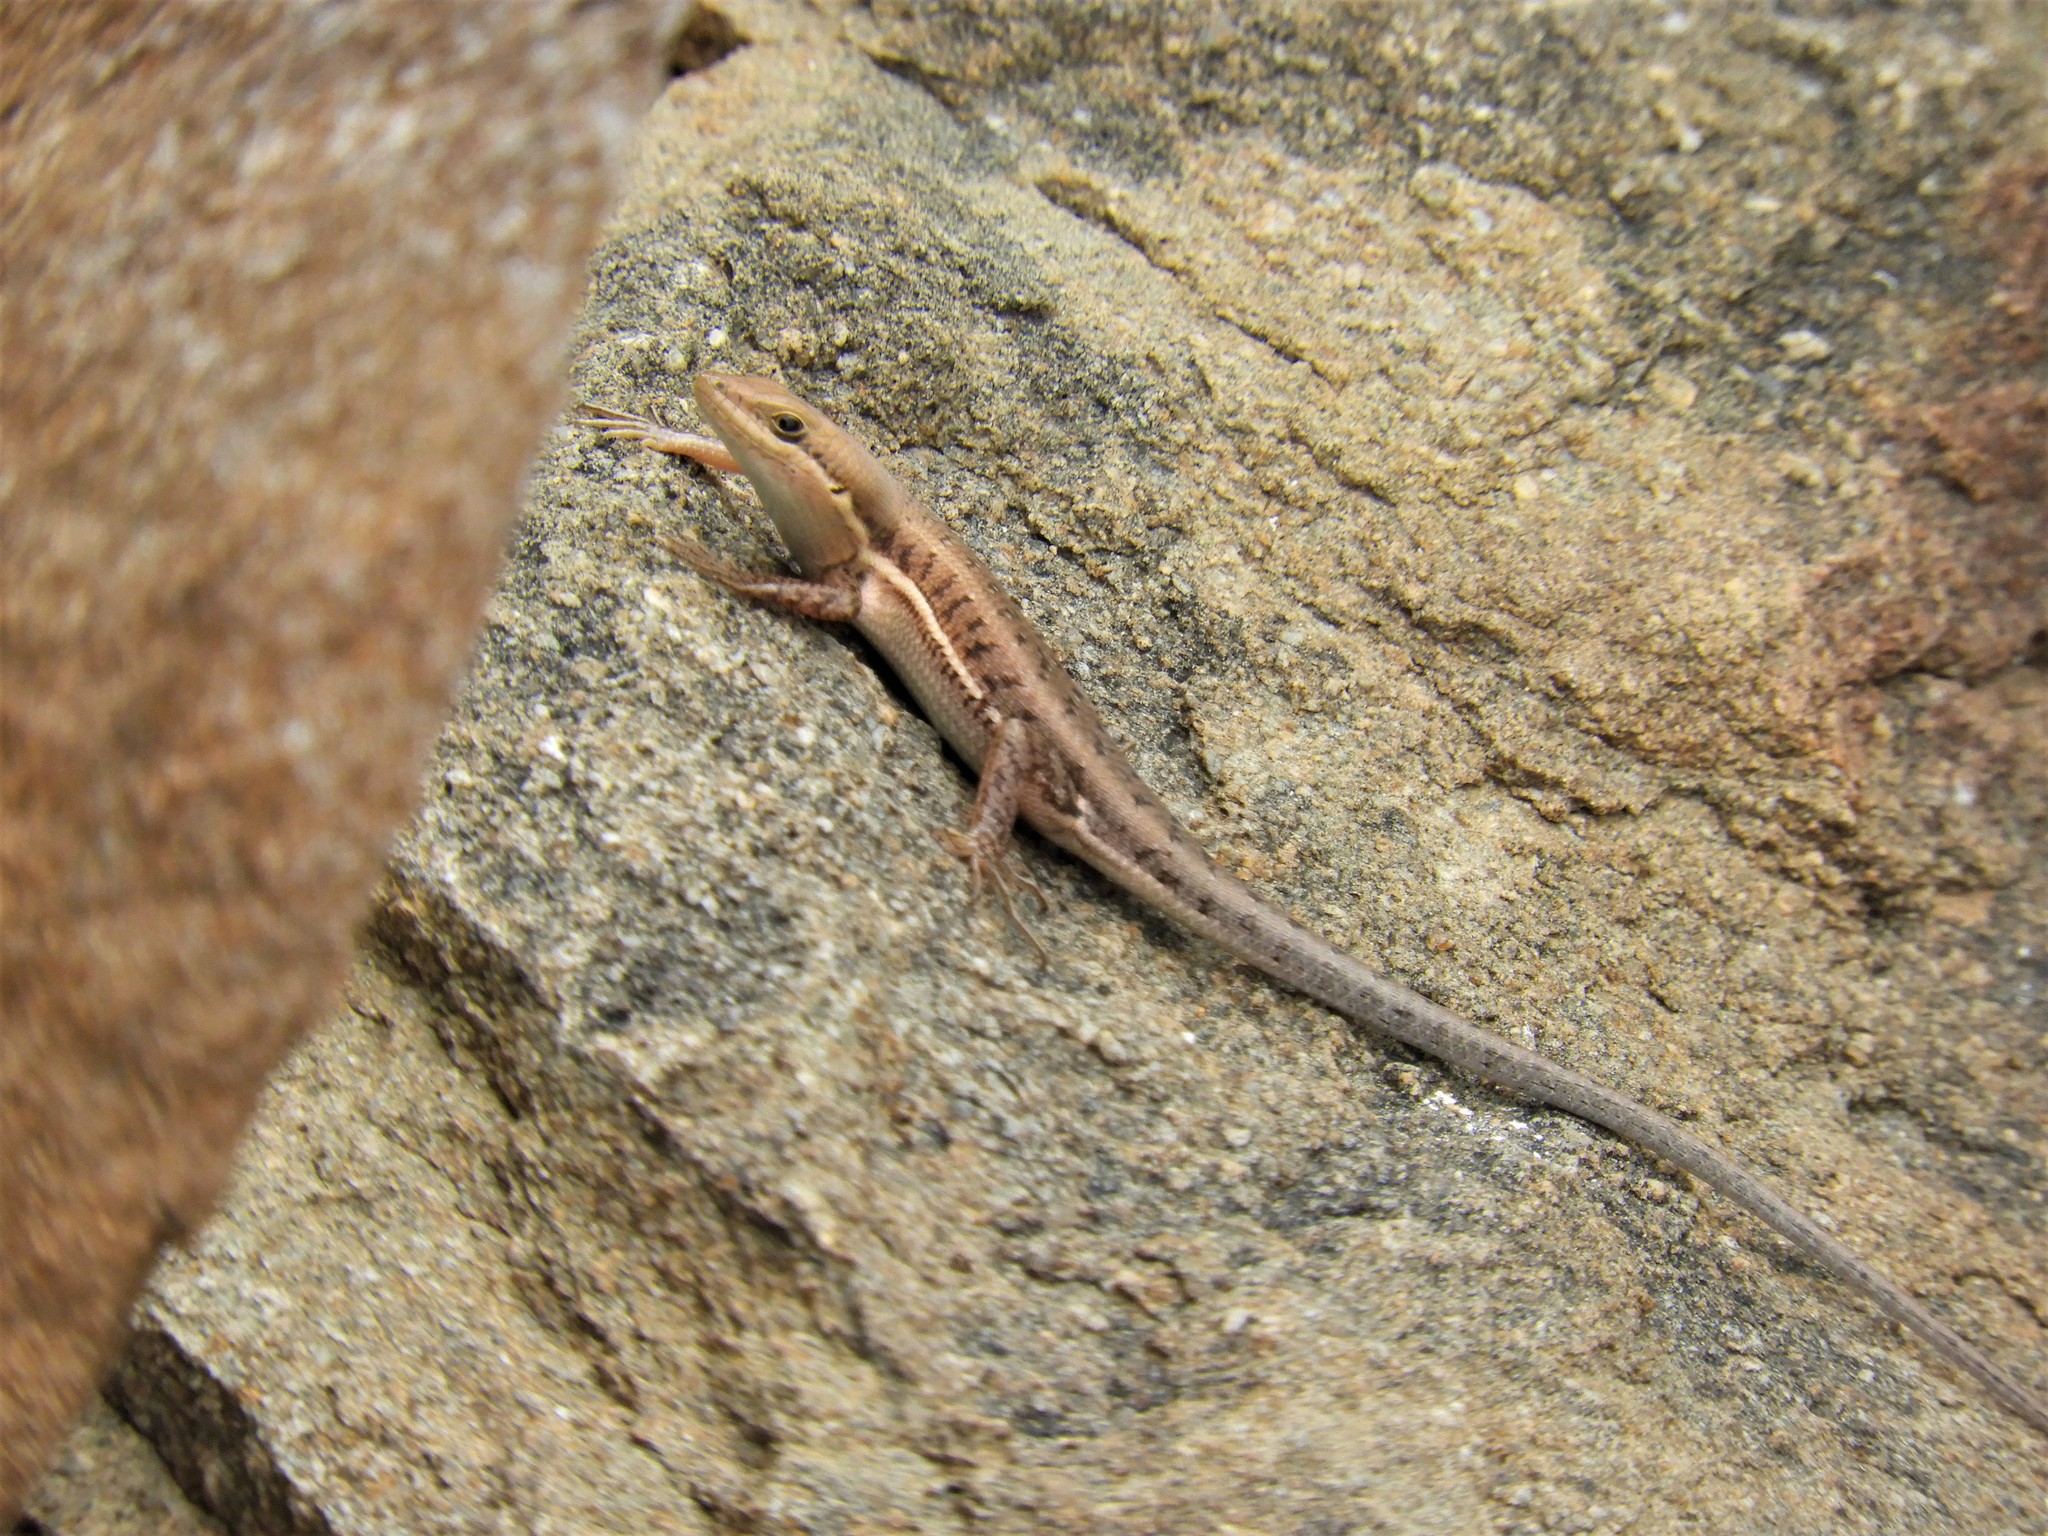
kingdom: Animalia
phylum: Chordata
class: Squamata
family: Scincidae
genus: Trachylepis
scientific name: Trachylepis varia
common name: Eastern variable skink
